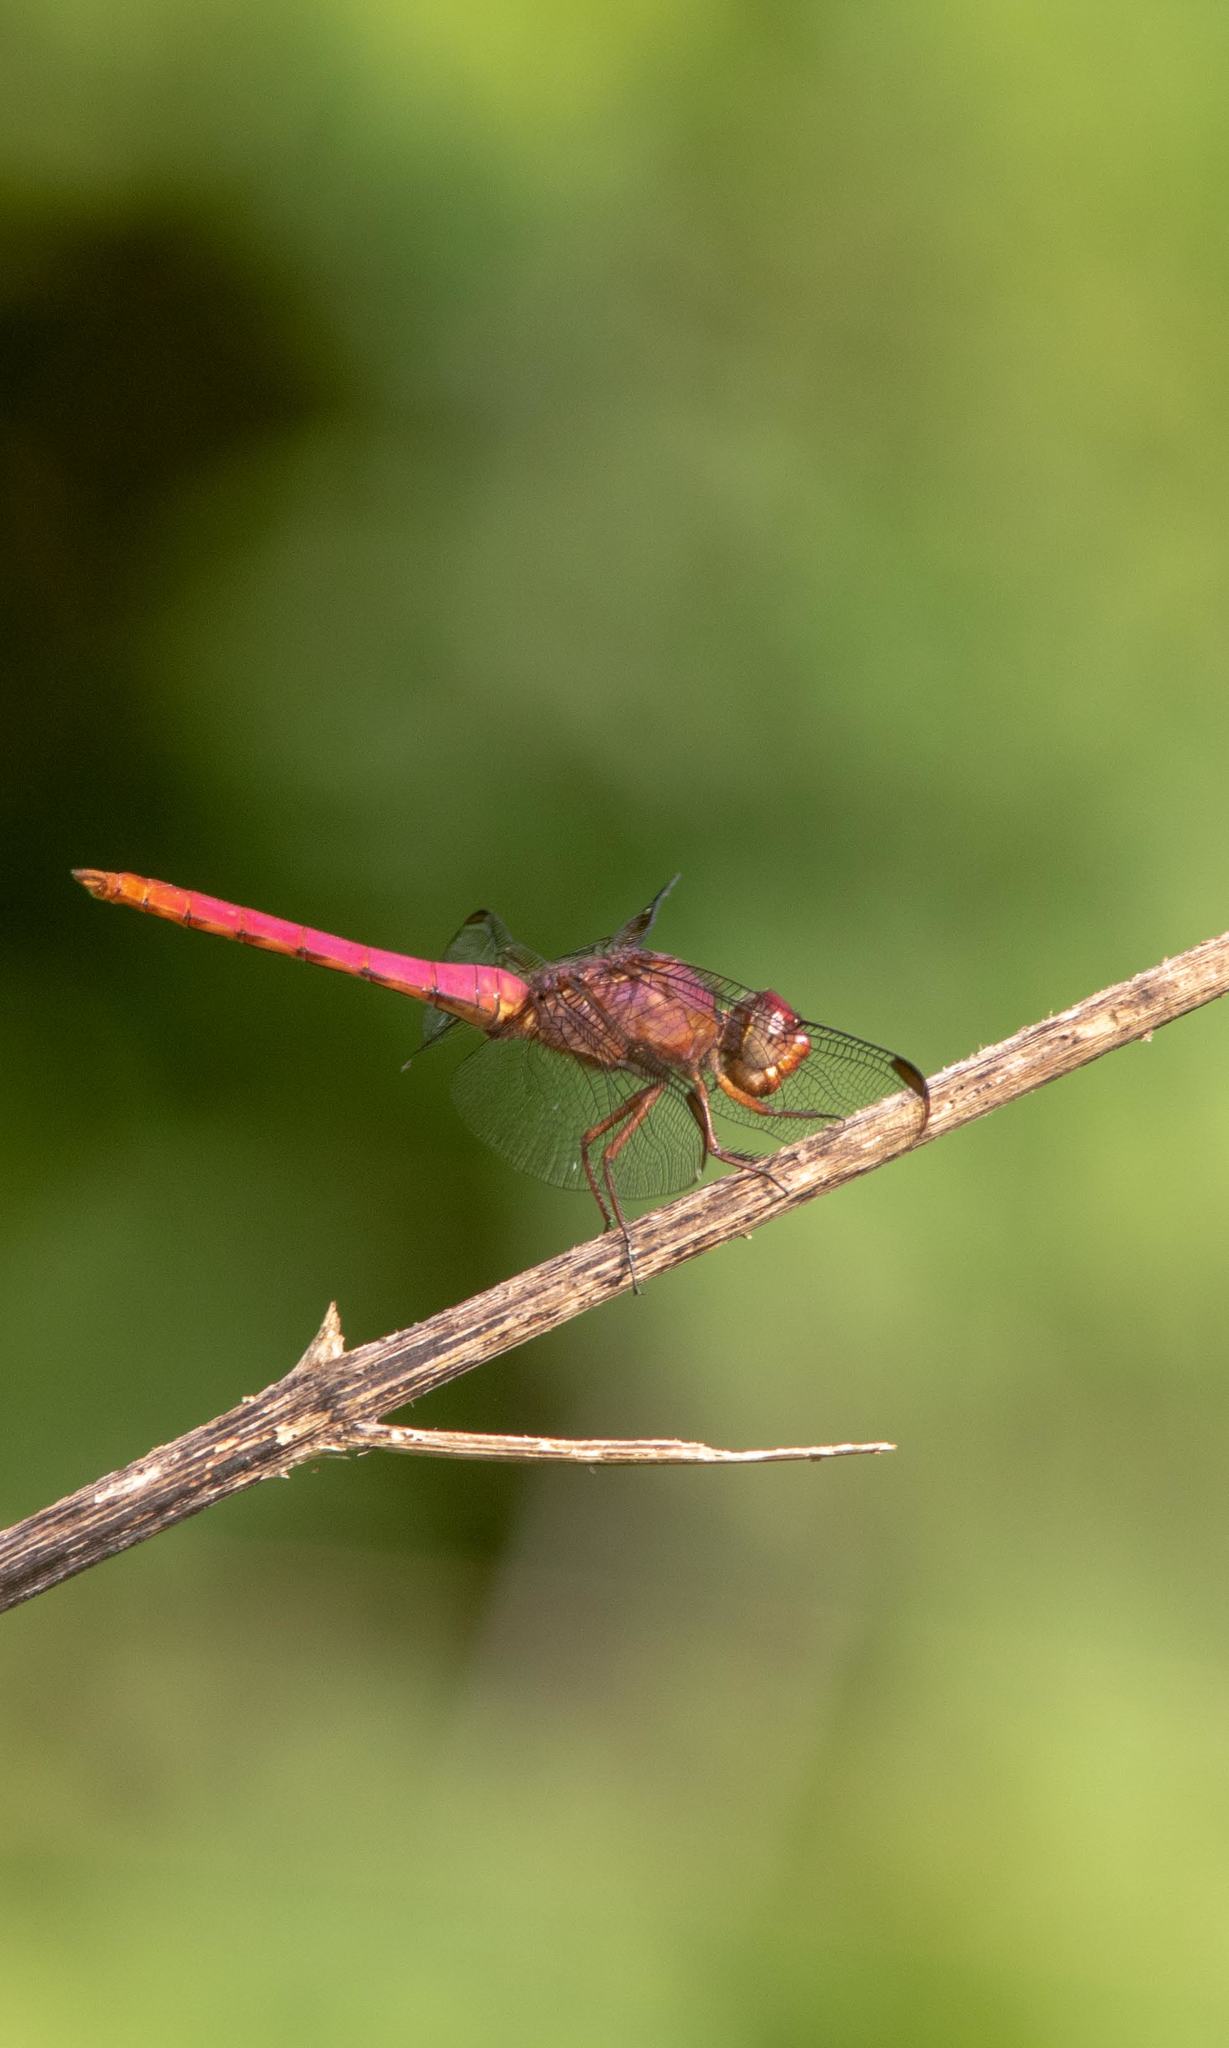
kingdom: Animalia
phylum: Arthropoda
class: Insecta
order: Odonata
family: Libellulidae
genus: Orthemis
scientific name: Orthemis ferruginea
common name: Roseate skimmer
